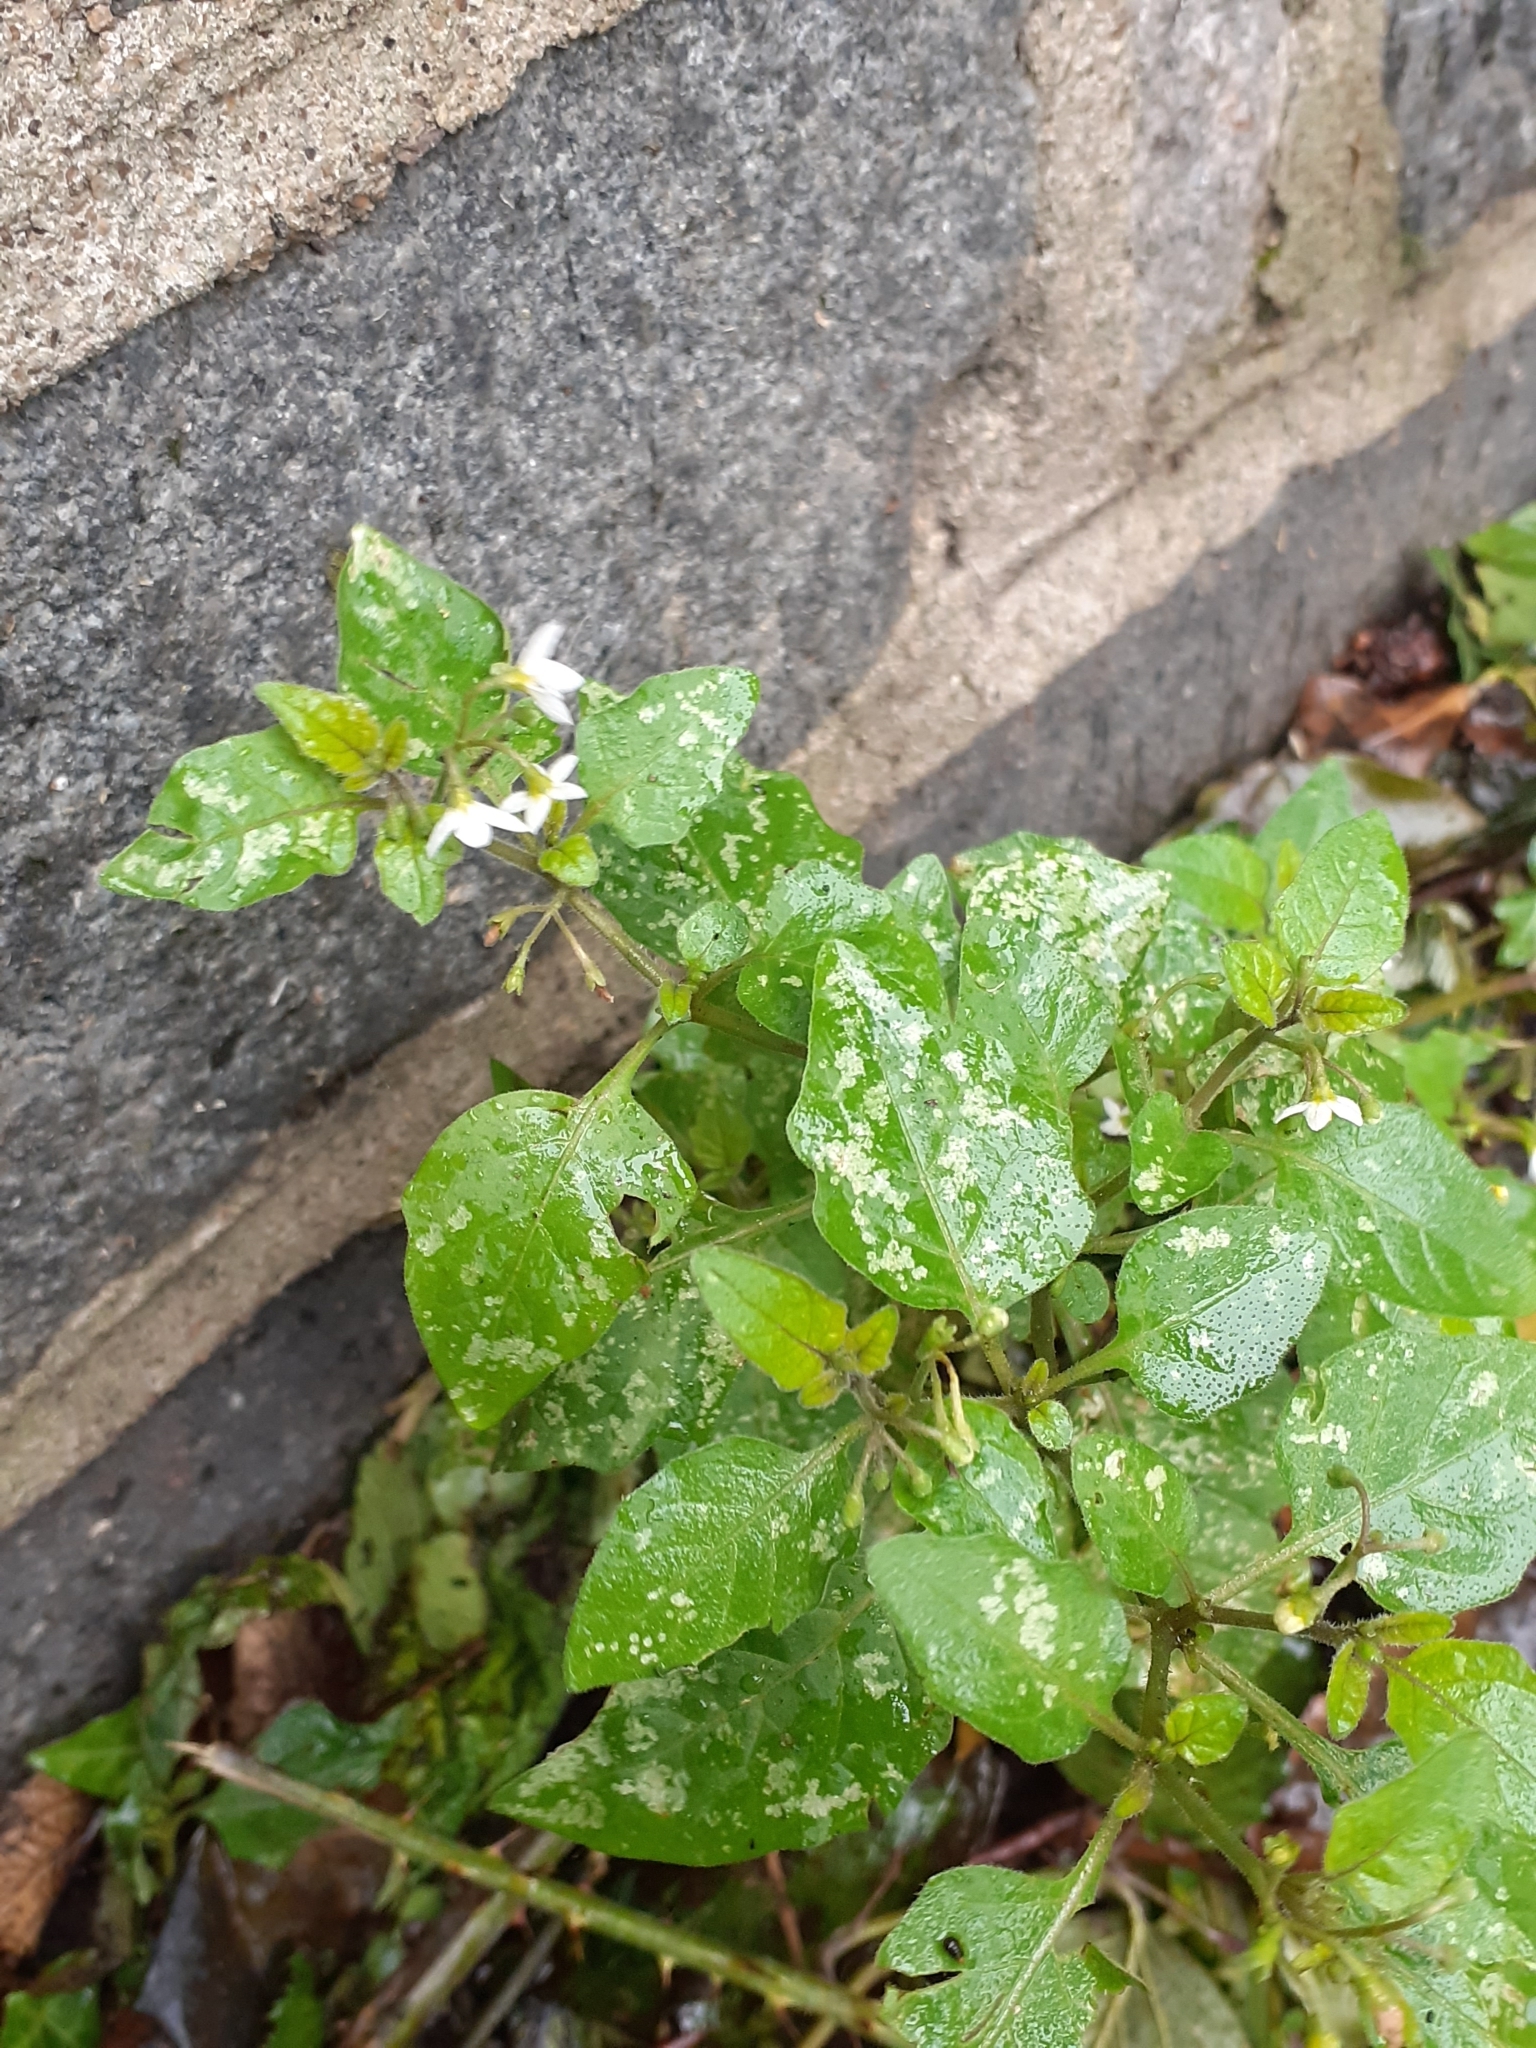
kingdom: Plantae
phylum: Tracheophyta
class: Magnoliopsida
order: Solanales
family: Solanaceae
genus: Solanum
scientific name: Solanum nigrum
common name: Black nightshade
